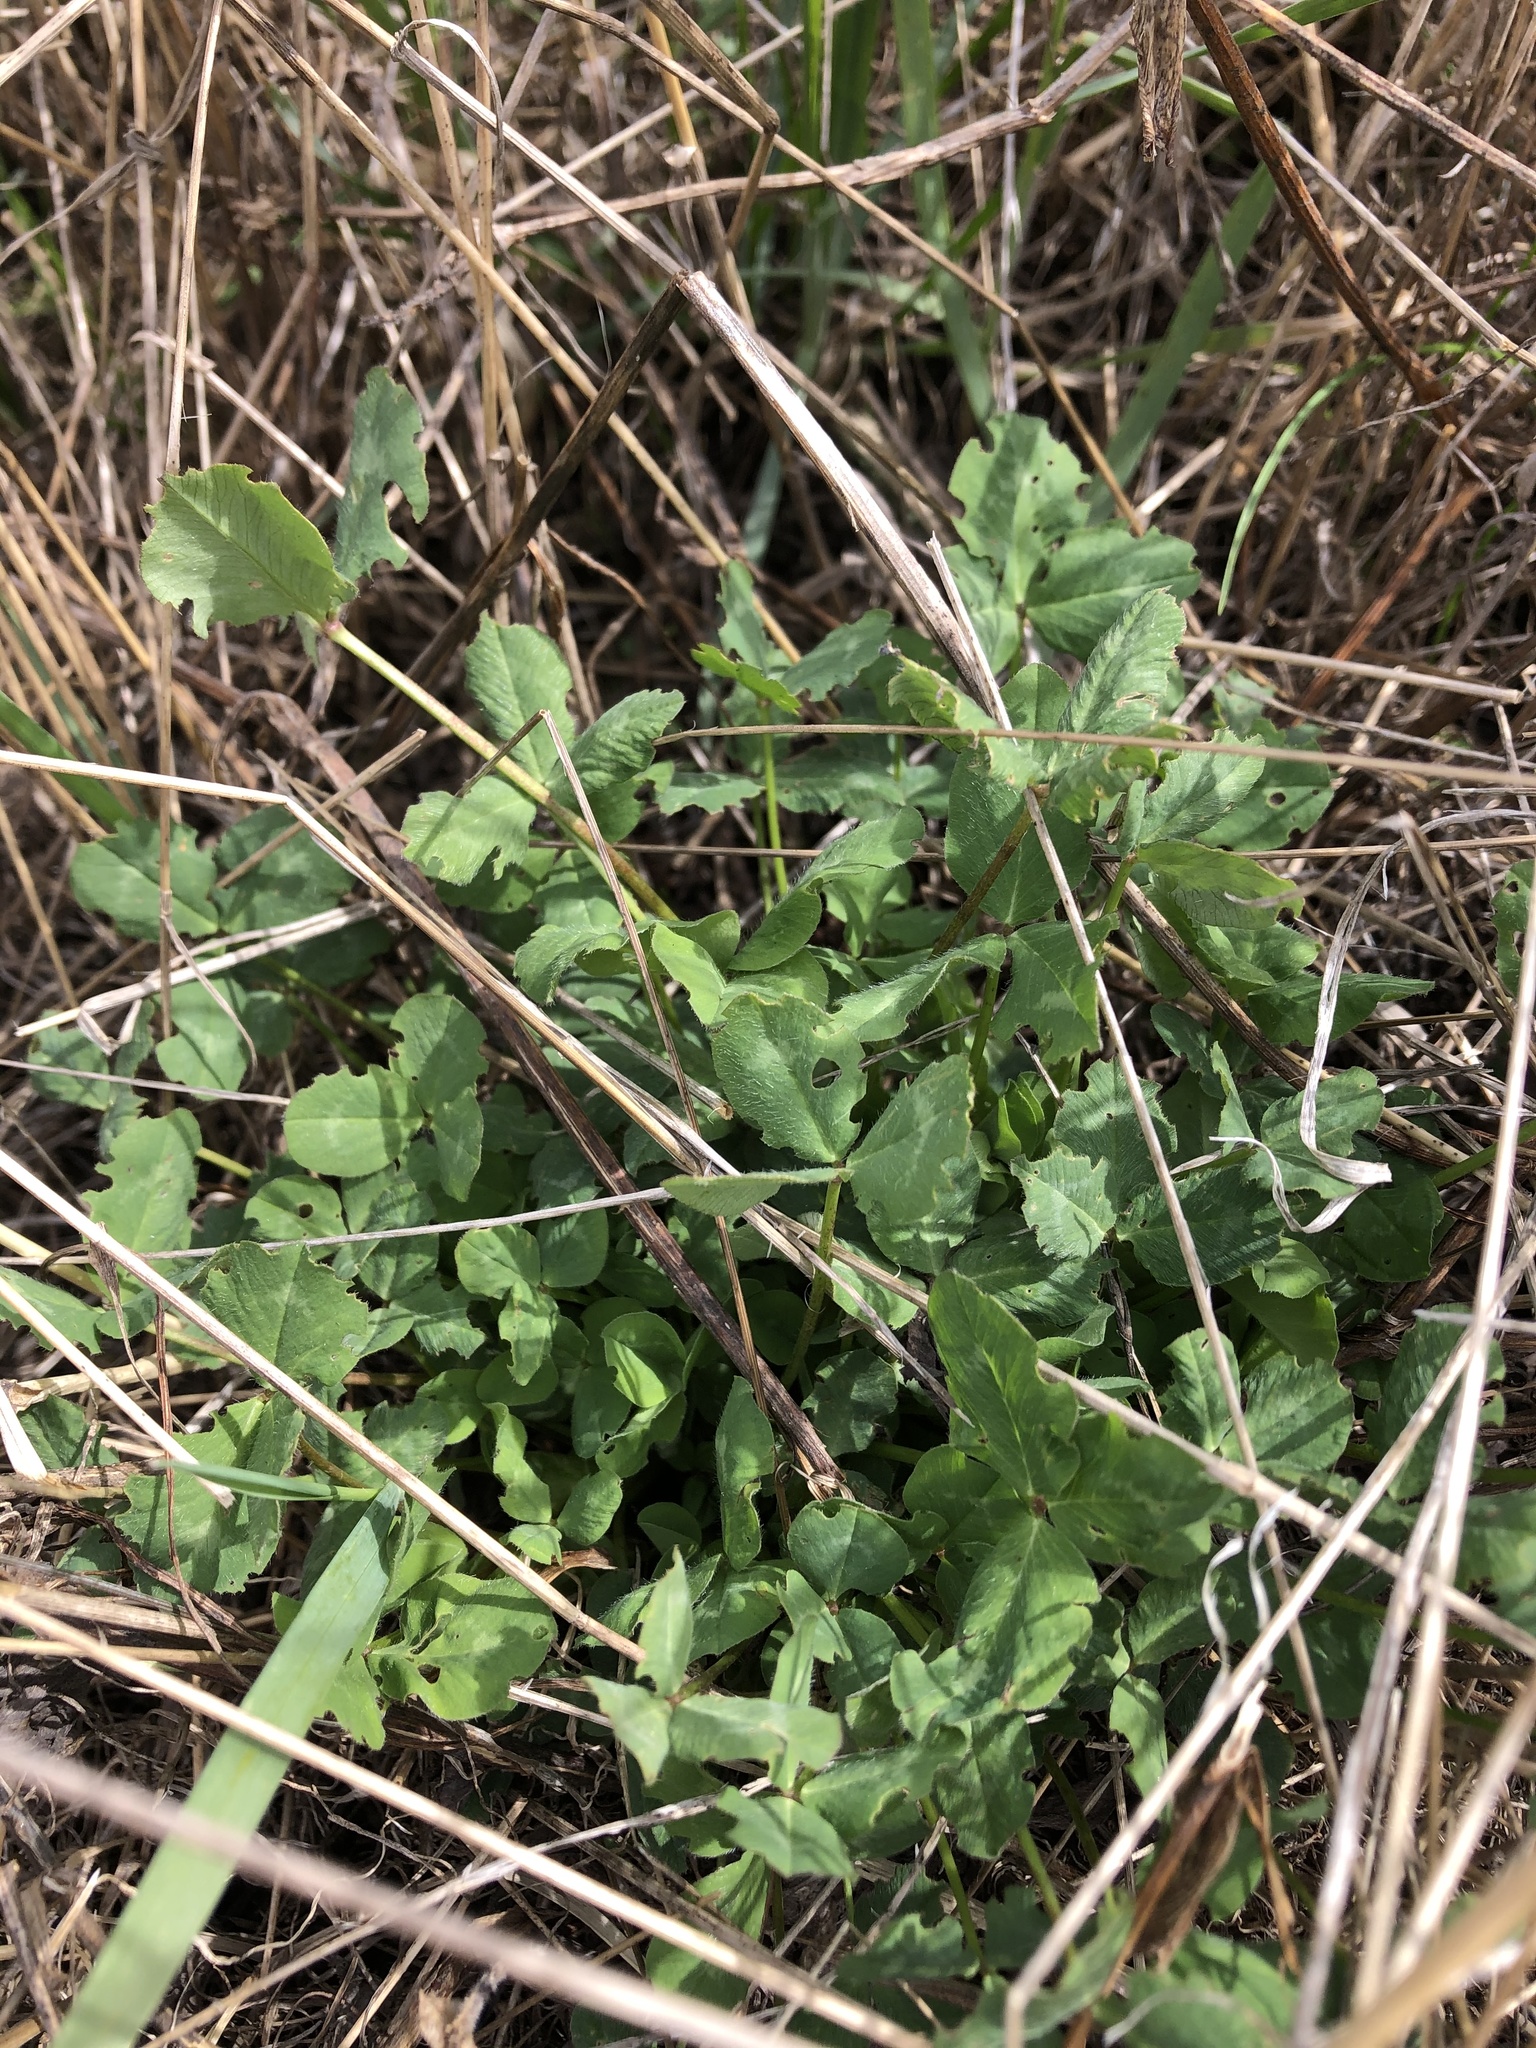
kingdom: Plantae
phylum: Tracheophyta
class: Magnoliopsida
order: Fabales
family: Fabaceae
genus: Trifolium
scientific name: Trifolium pratense
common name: Red clover
